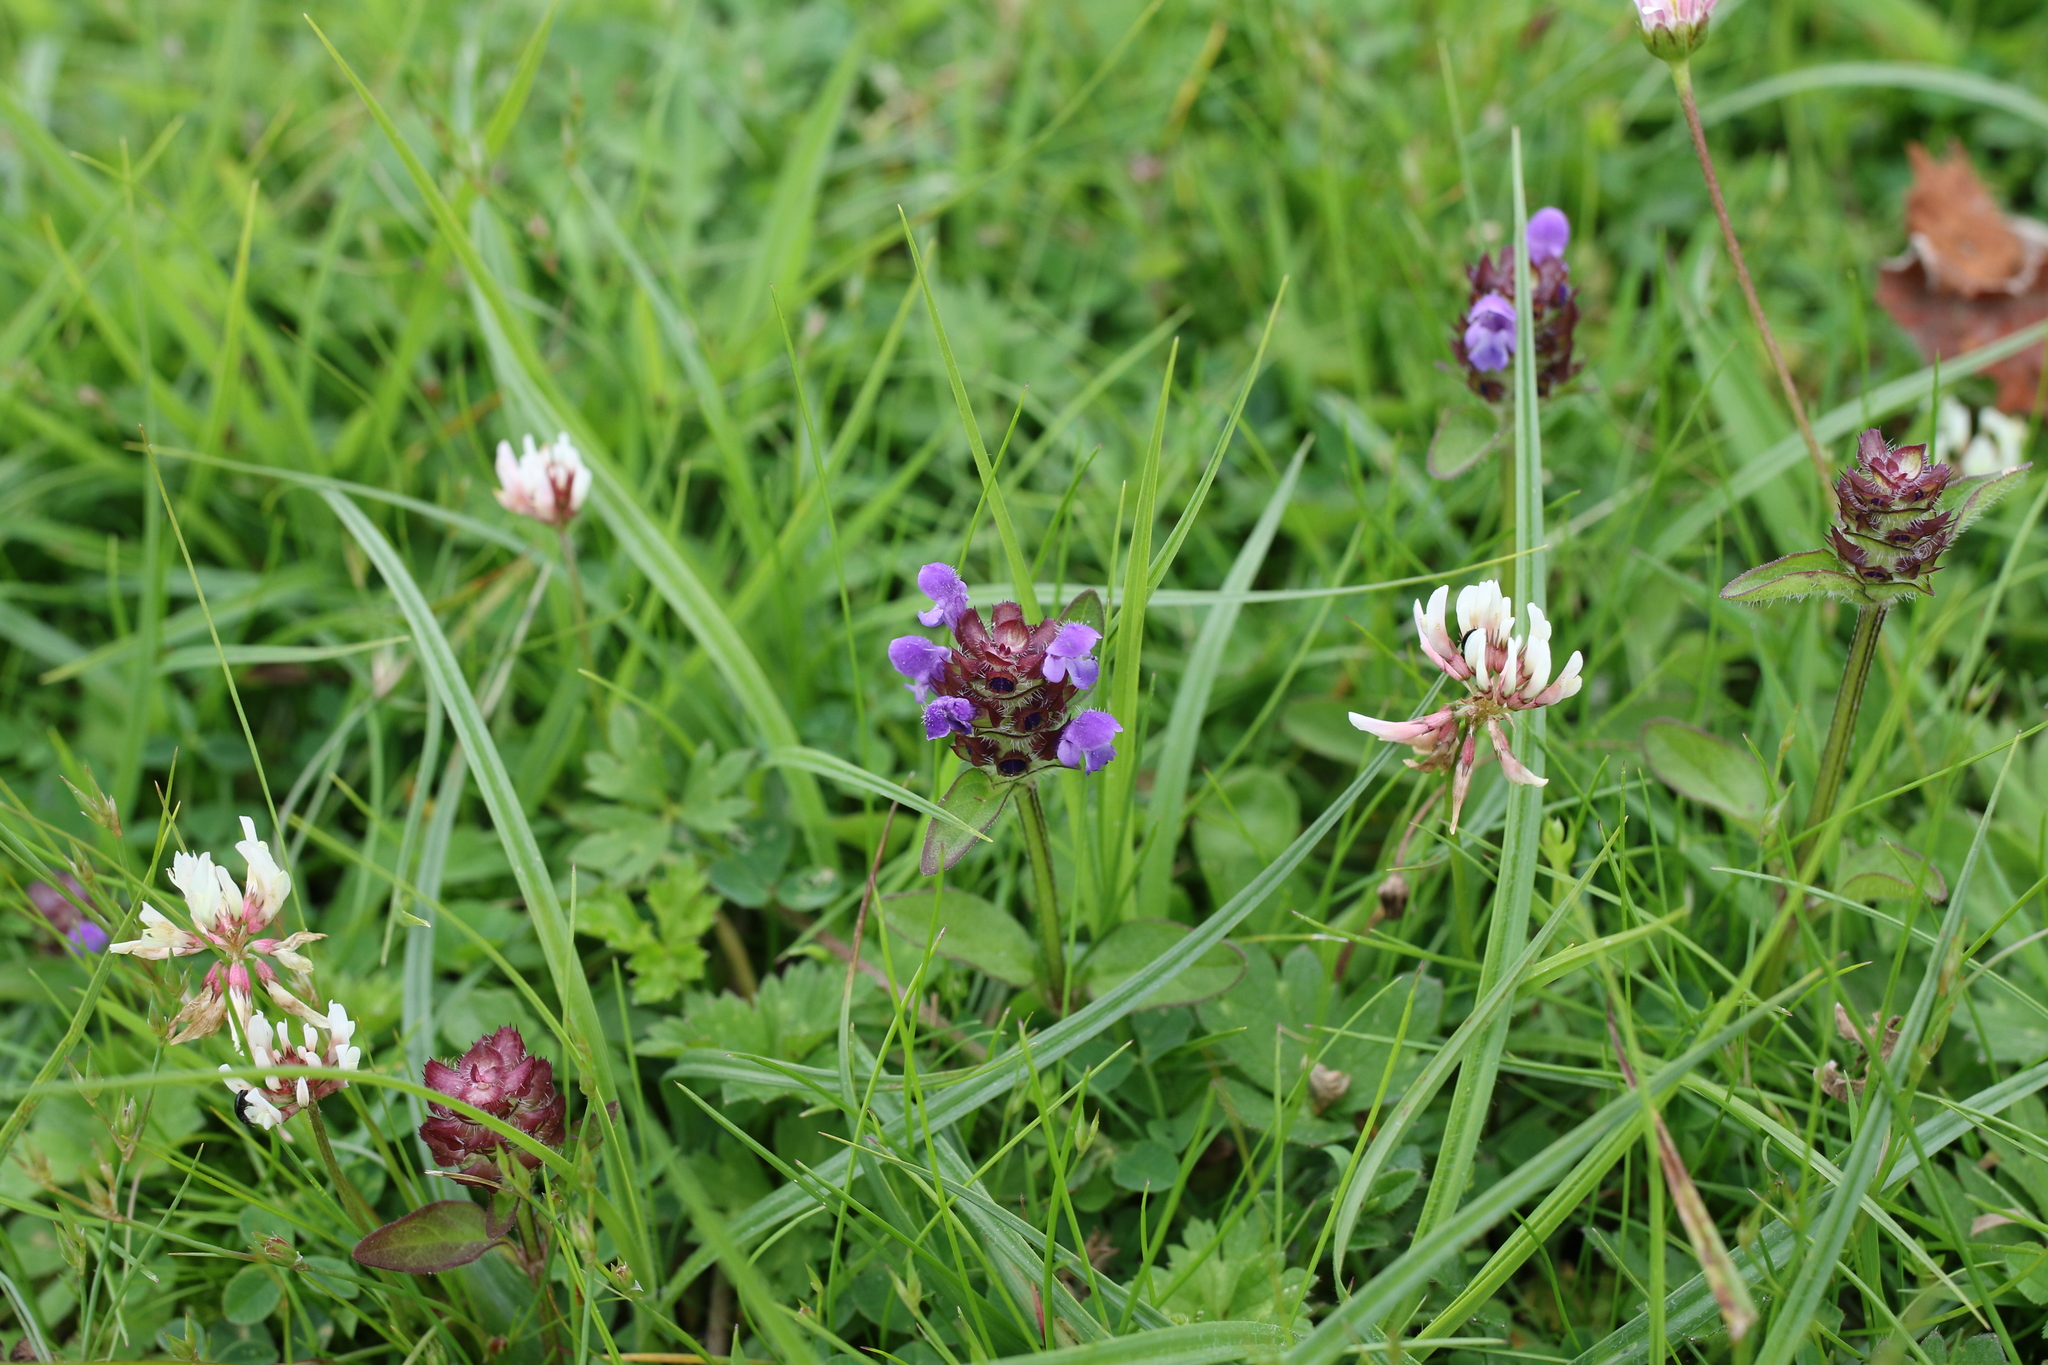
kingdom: Plantae
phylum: Tracheophyta
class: Magnoliopsida
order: Lamiales
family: Lamiaceae
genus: Prunella
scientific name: Prunella vulgaris
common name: Heal-all
